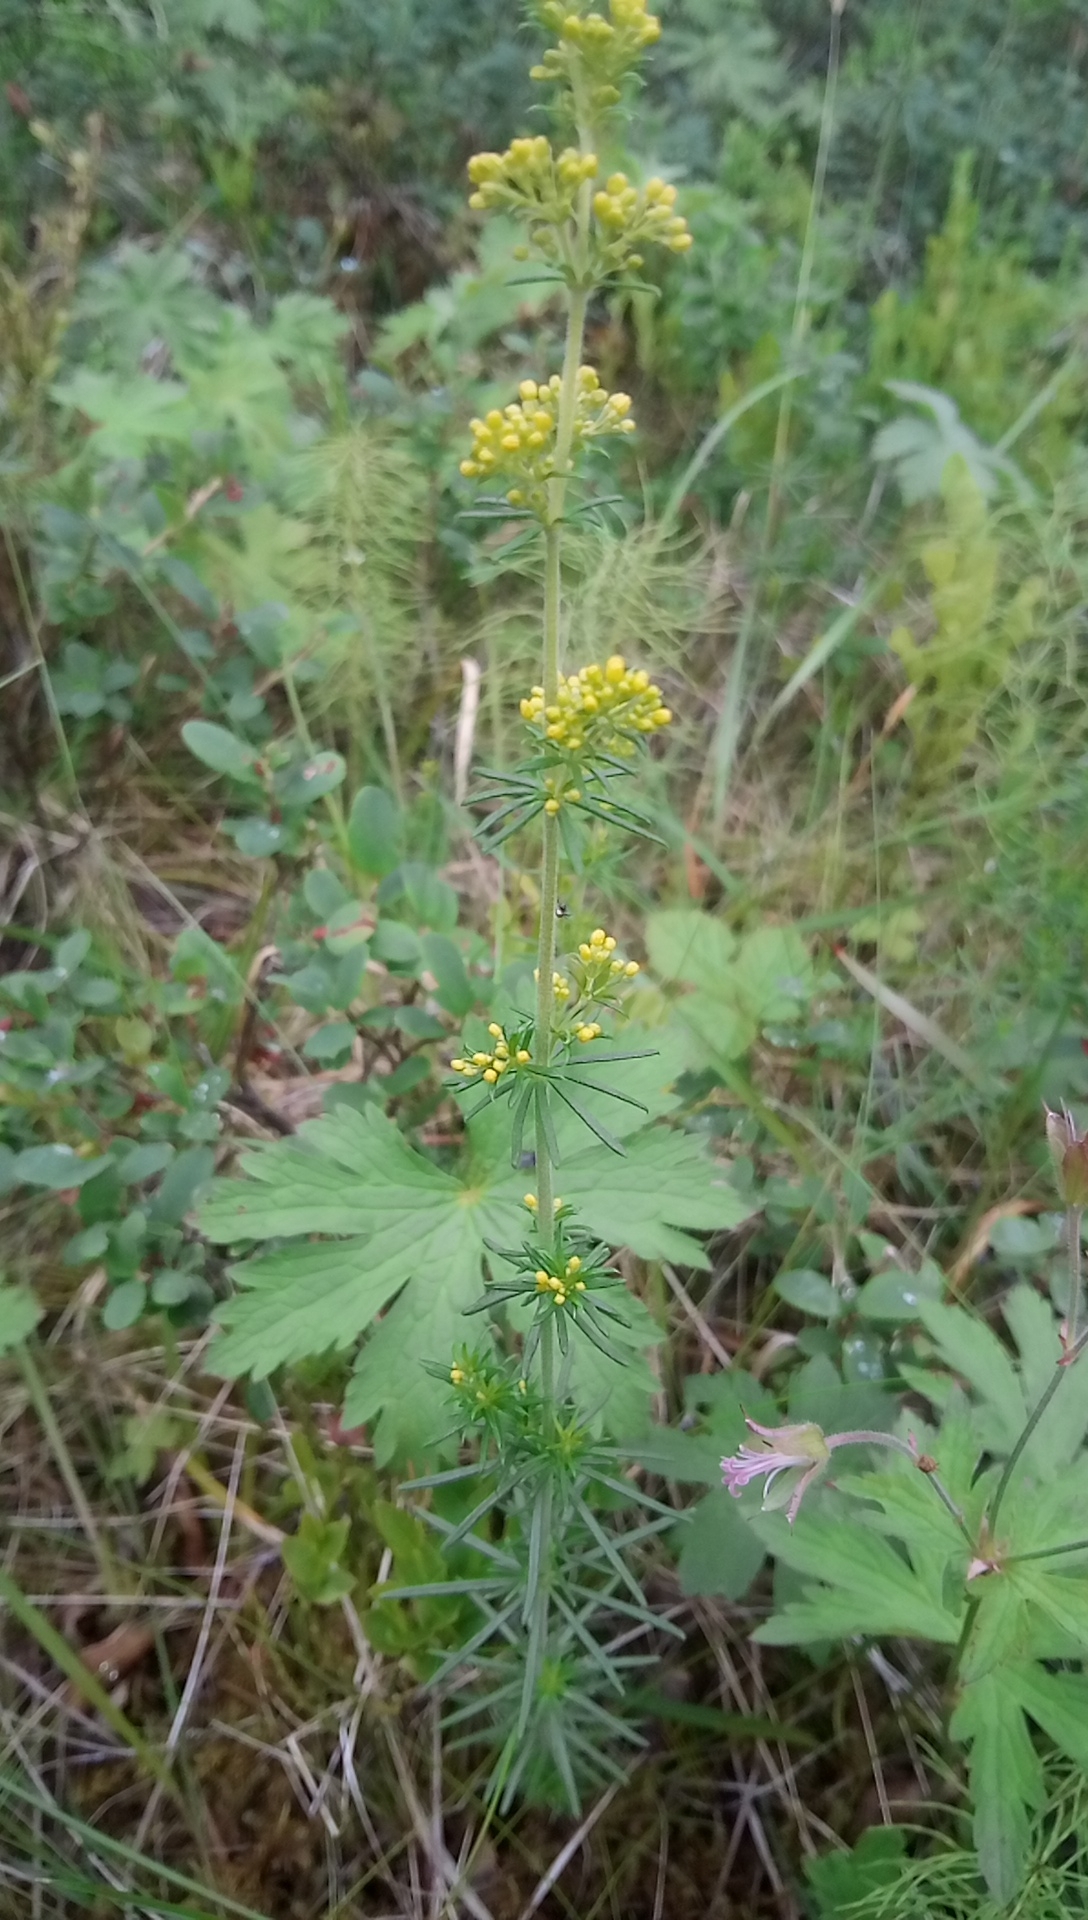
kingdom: Plantae
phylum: Tracheophyta
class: Magnoliopsida
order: Gentianales
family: Rubiaceae
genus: Galium
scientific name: Galium verum
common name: Lady's bedstraw
